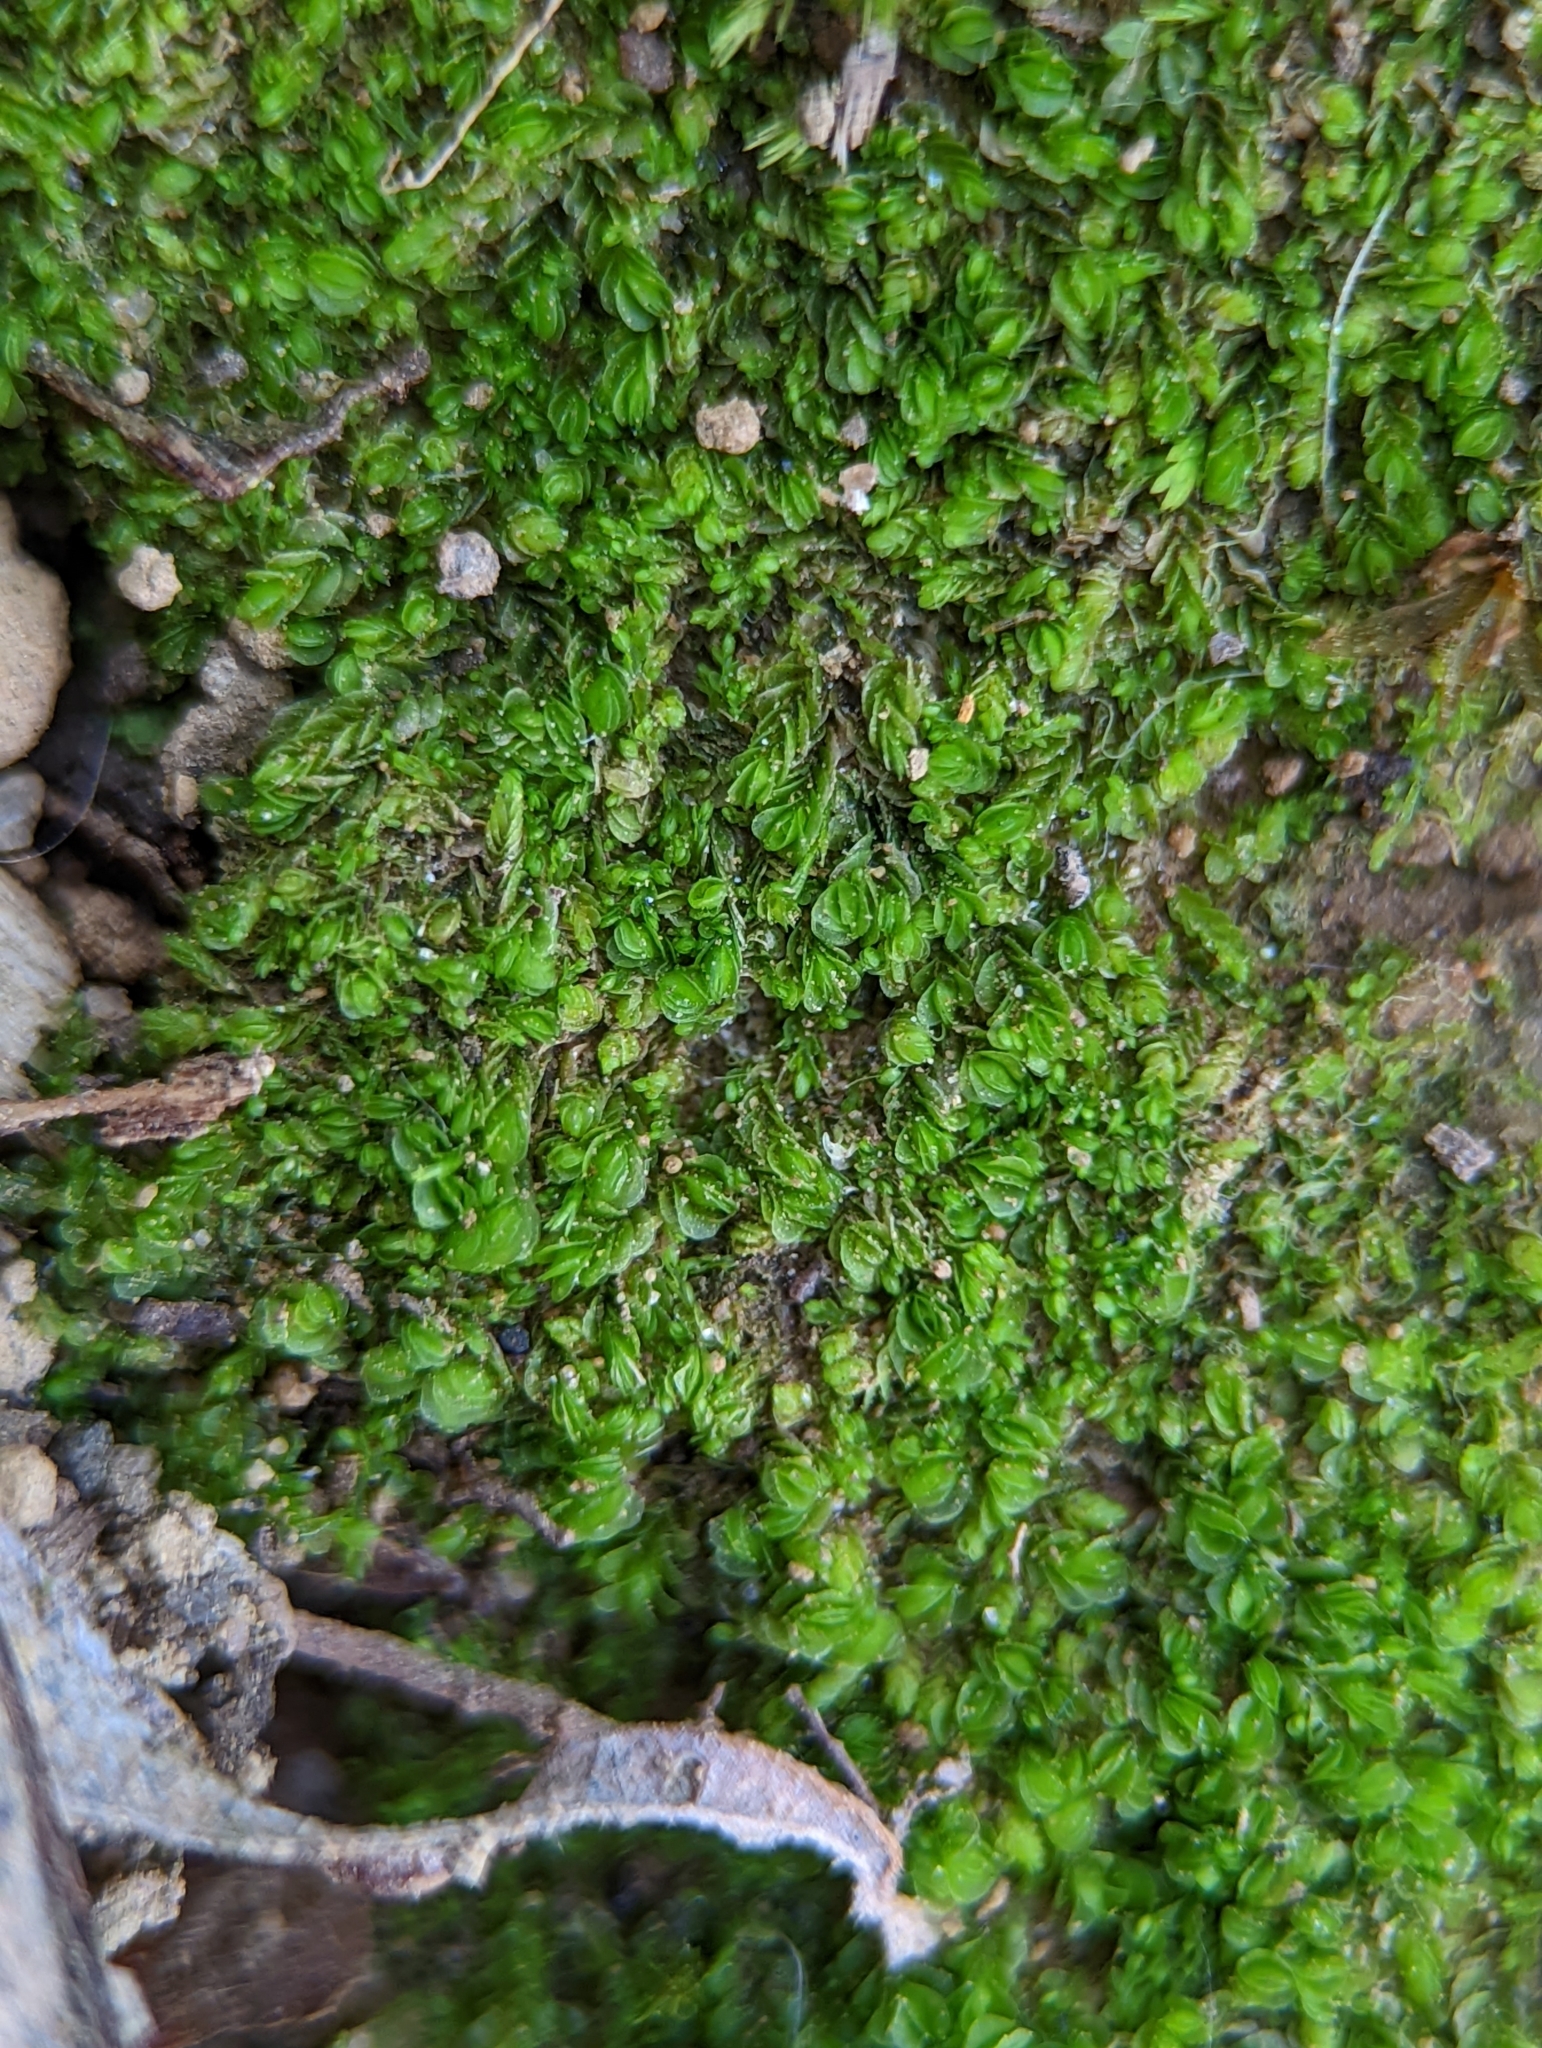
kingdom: Plantae
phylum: Marchantiophyta
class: Jungermanniopsida
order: Jungermanniales
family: Solenostomataceae
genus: Solenostoma
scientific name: Solenostoma gracillimum
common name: Crenulated flapwort
